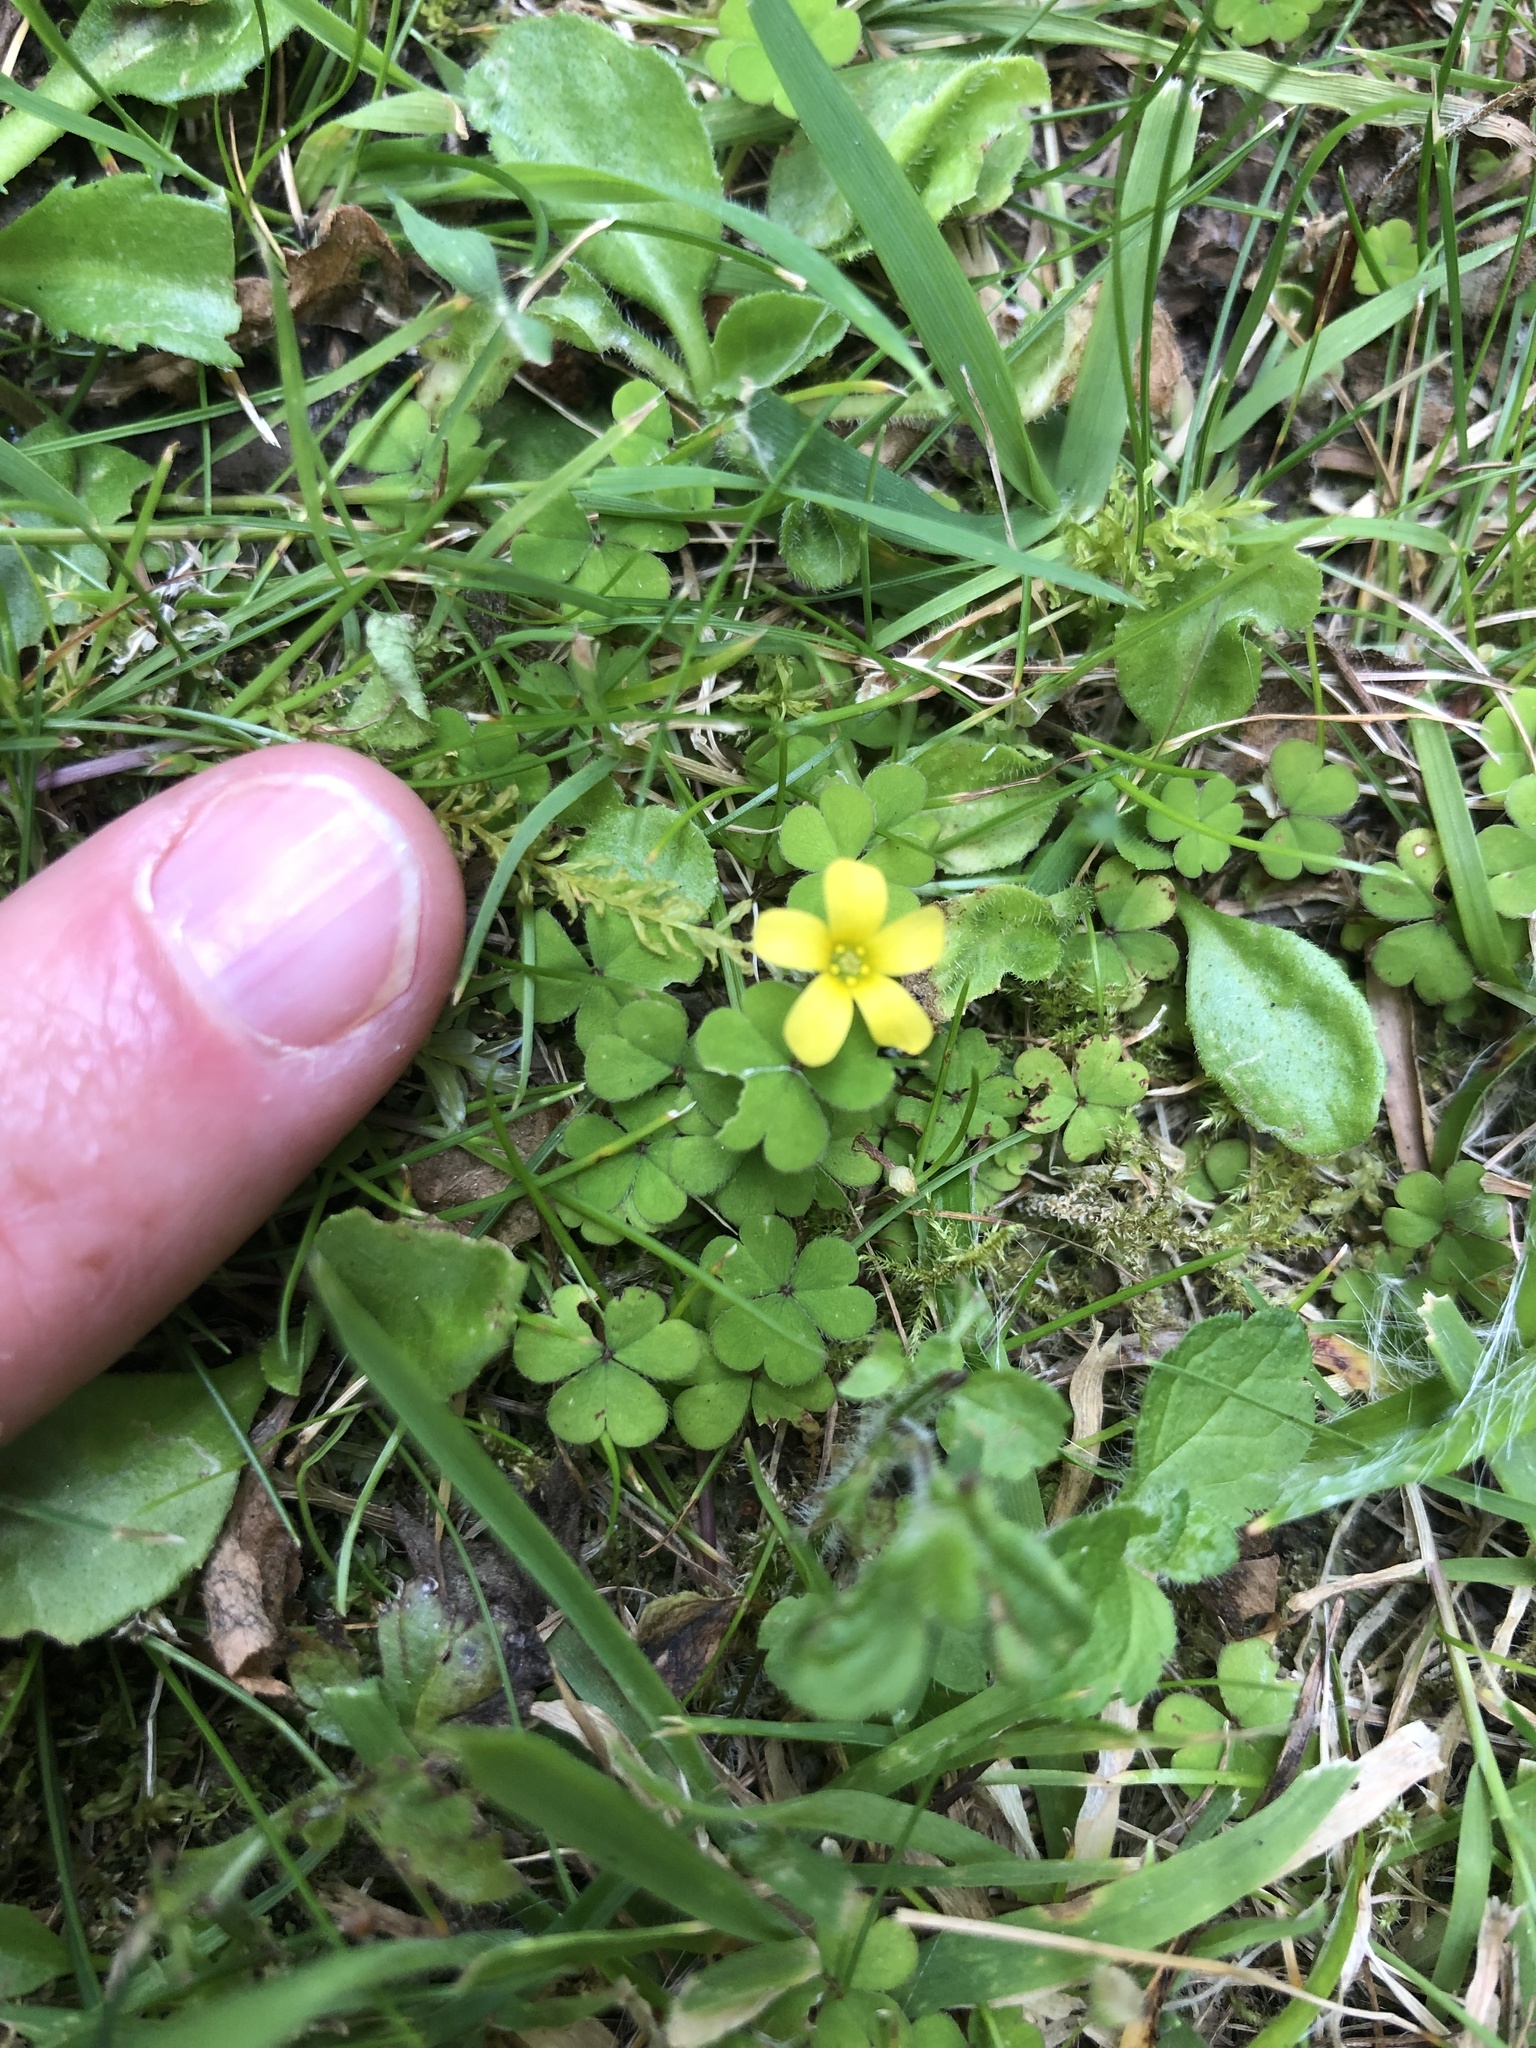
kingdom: Plantae
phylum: Tracheophyta
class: Magnoliopsida
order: Oxalidales
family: Oxalidaceae
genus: Oxalis
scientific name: Oxalis corniculata
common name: Procumbent yellow-sorrel
